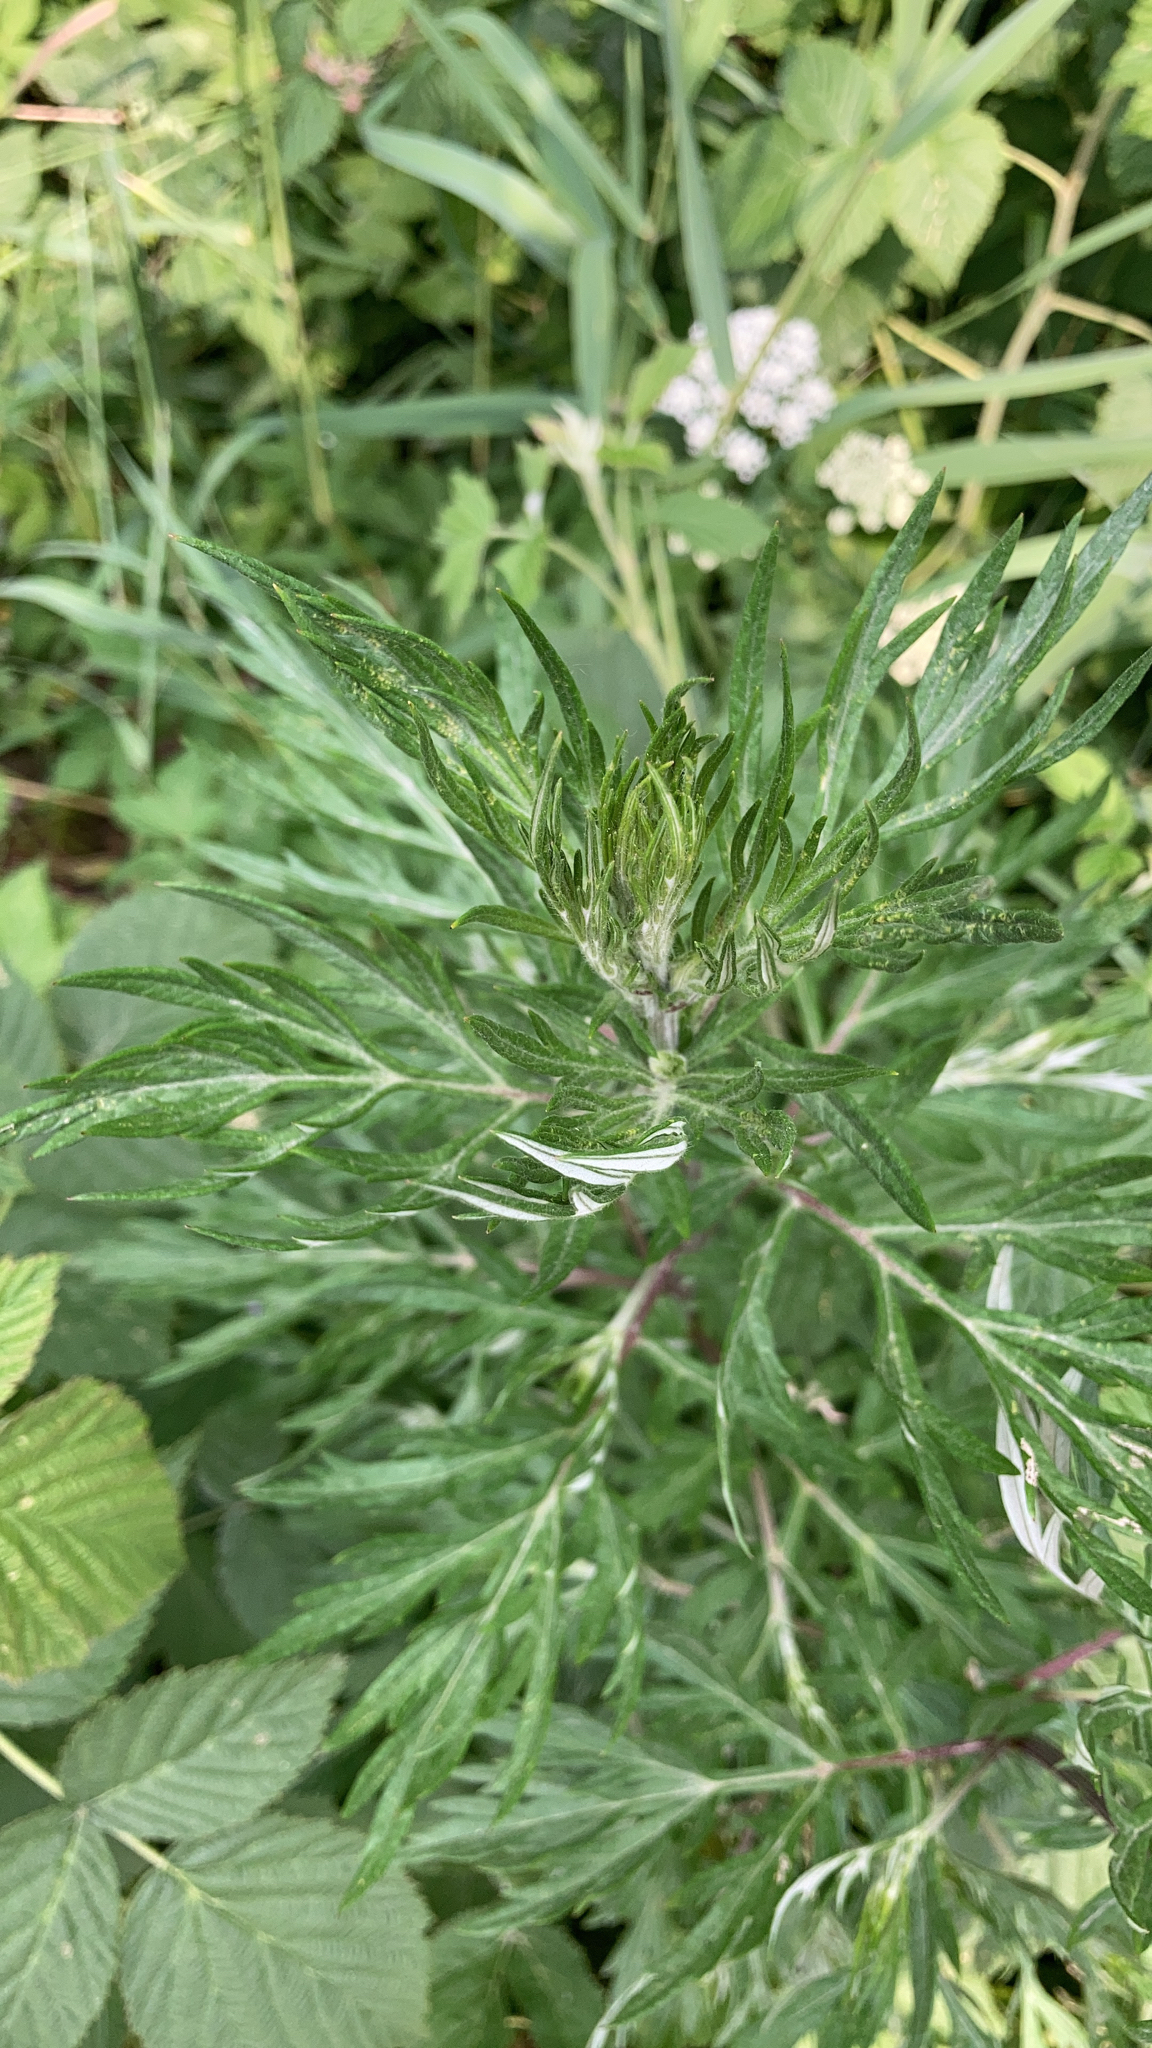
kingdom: Plantae
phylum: Tracheophyta
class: Magnoliopsida
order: Asterales
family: Asteraceae
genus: Artemisia
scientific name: Artemisia vulgaris
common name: Mugwort
